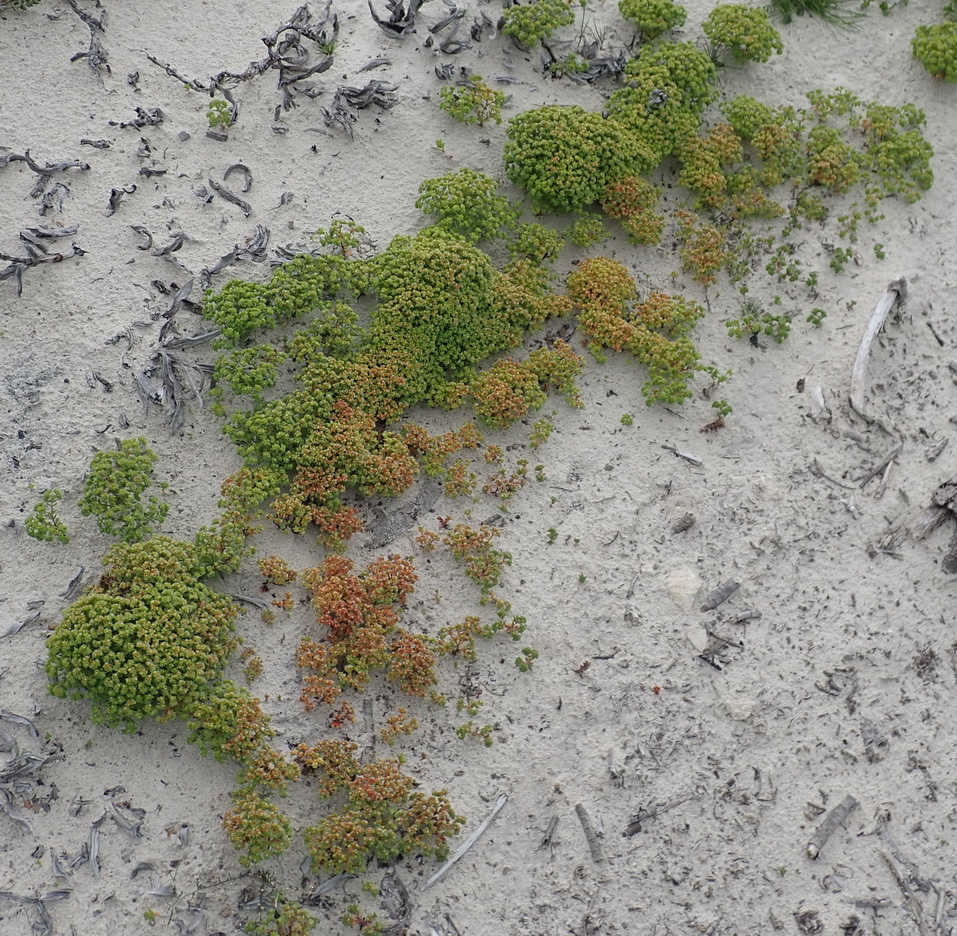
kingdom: Plantae
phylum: Tracheophyta
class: Magnoliopsida
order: Saxifragales
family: Crassulaceae
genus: Crassula
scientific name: Crassula glomerata
